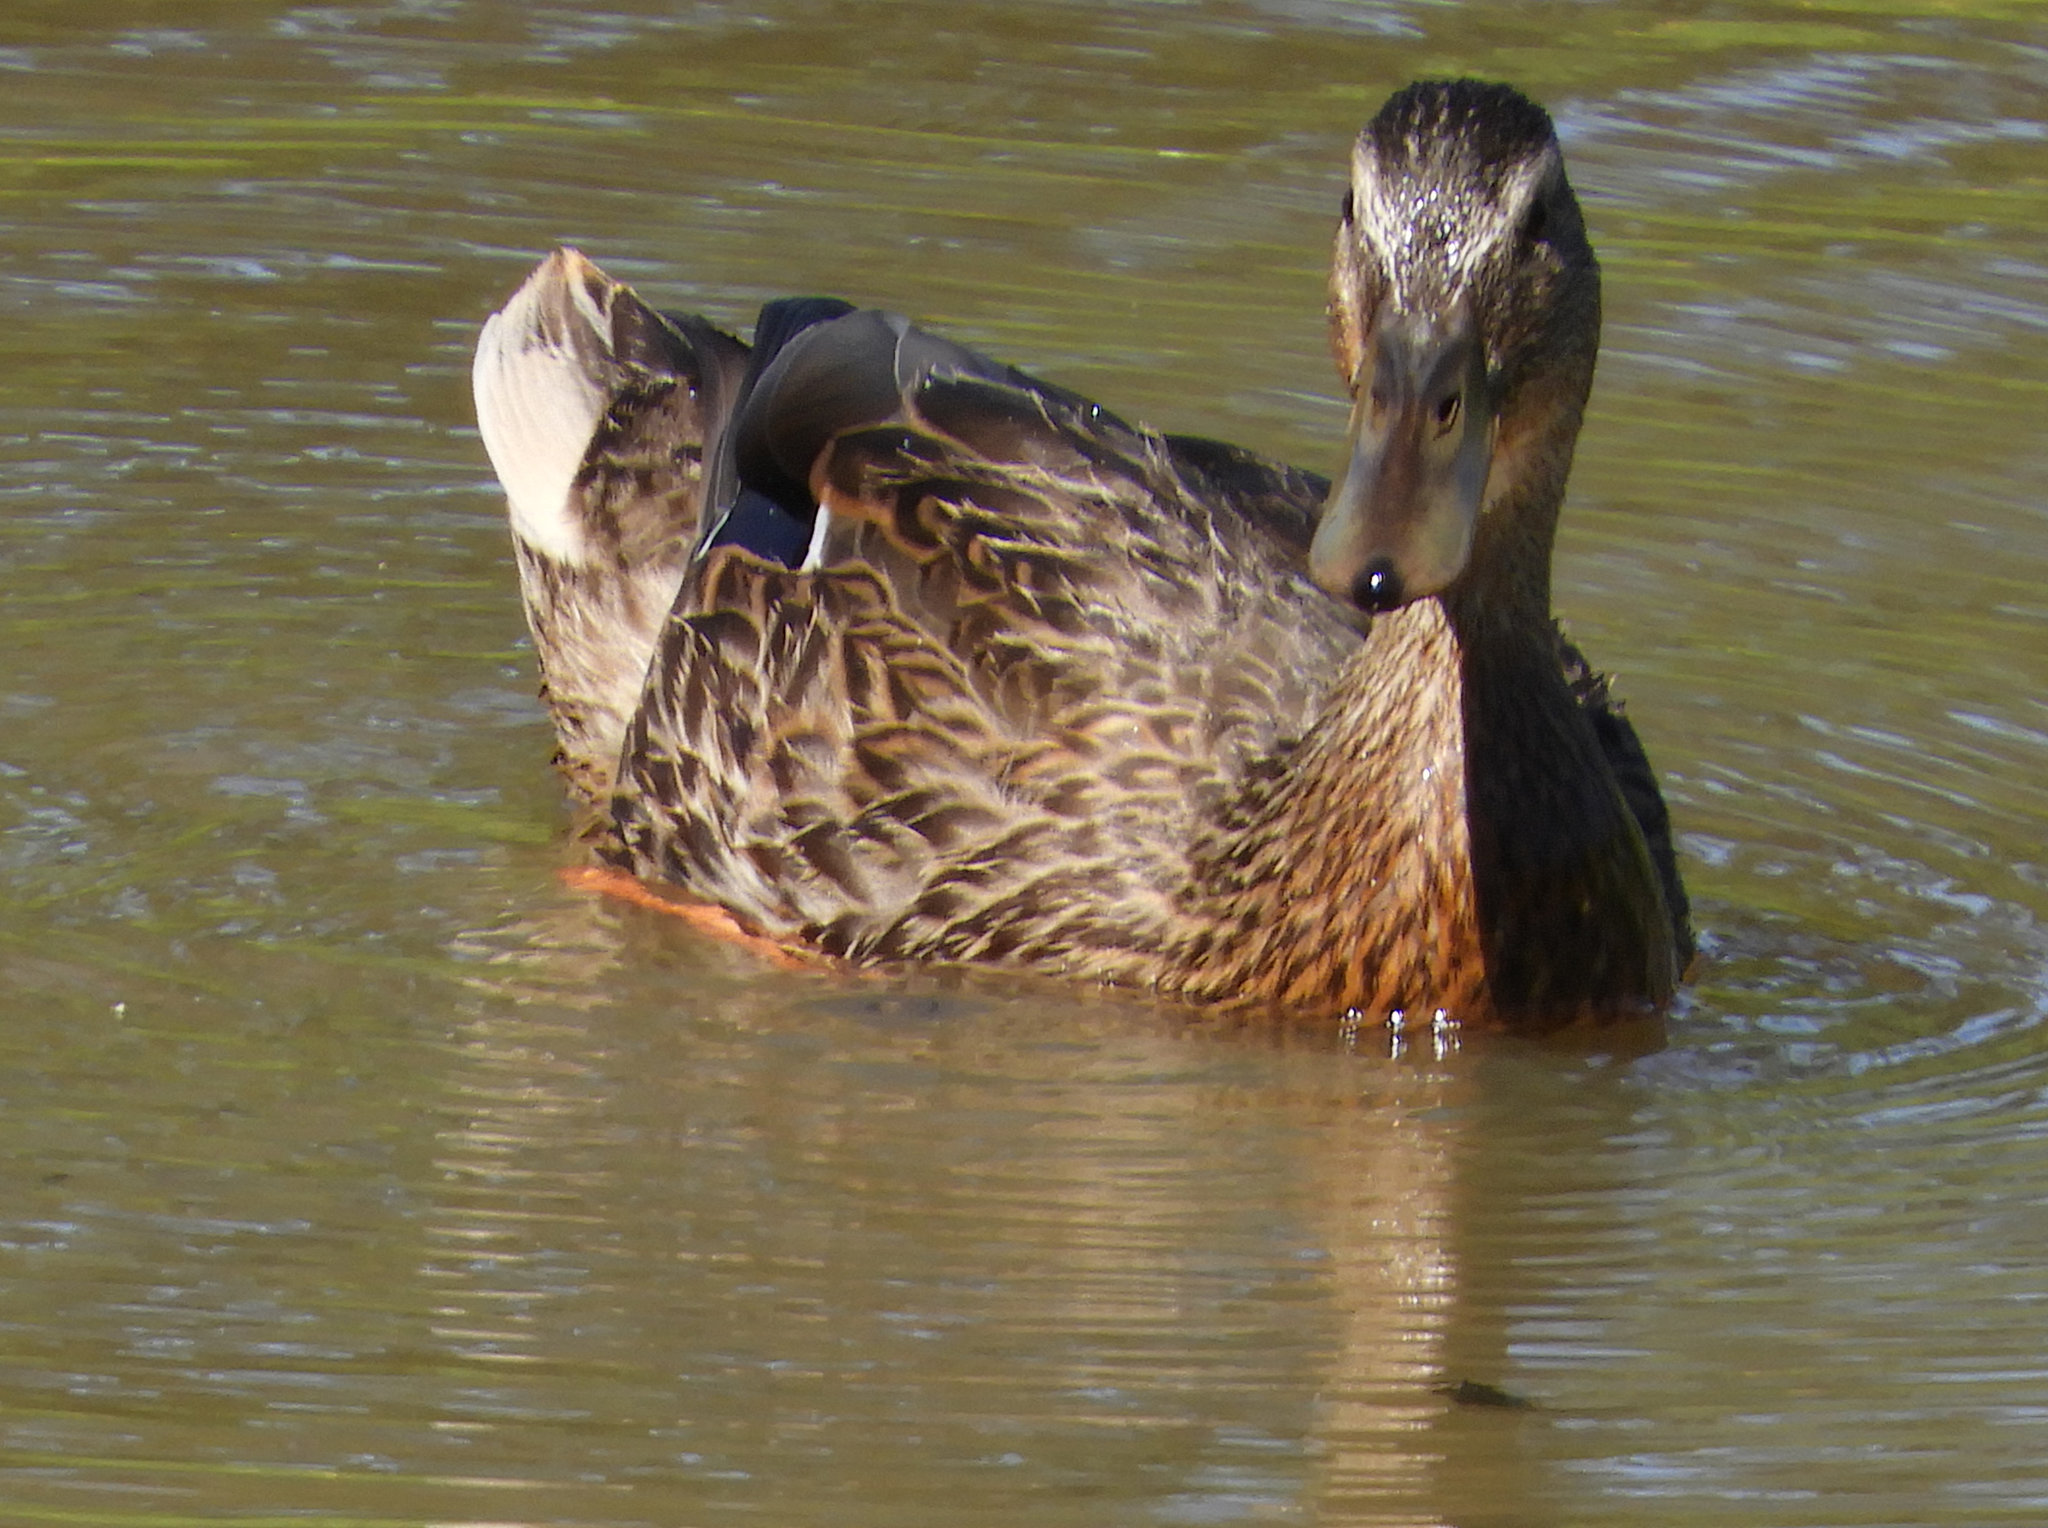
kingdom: Animalia
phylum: Chordata
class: Aves
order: Anseriformes
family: Anatidae
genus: Anas
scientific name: Anas platyrhynchos
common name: Mallard
